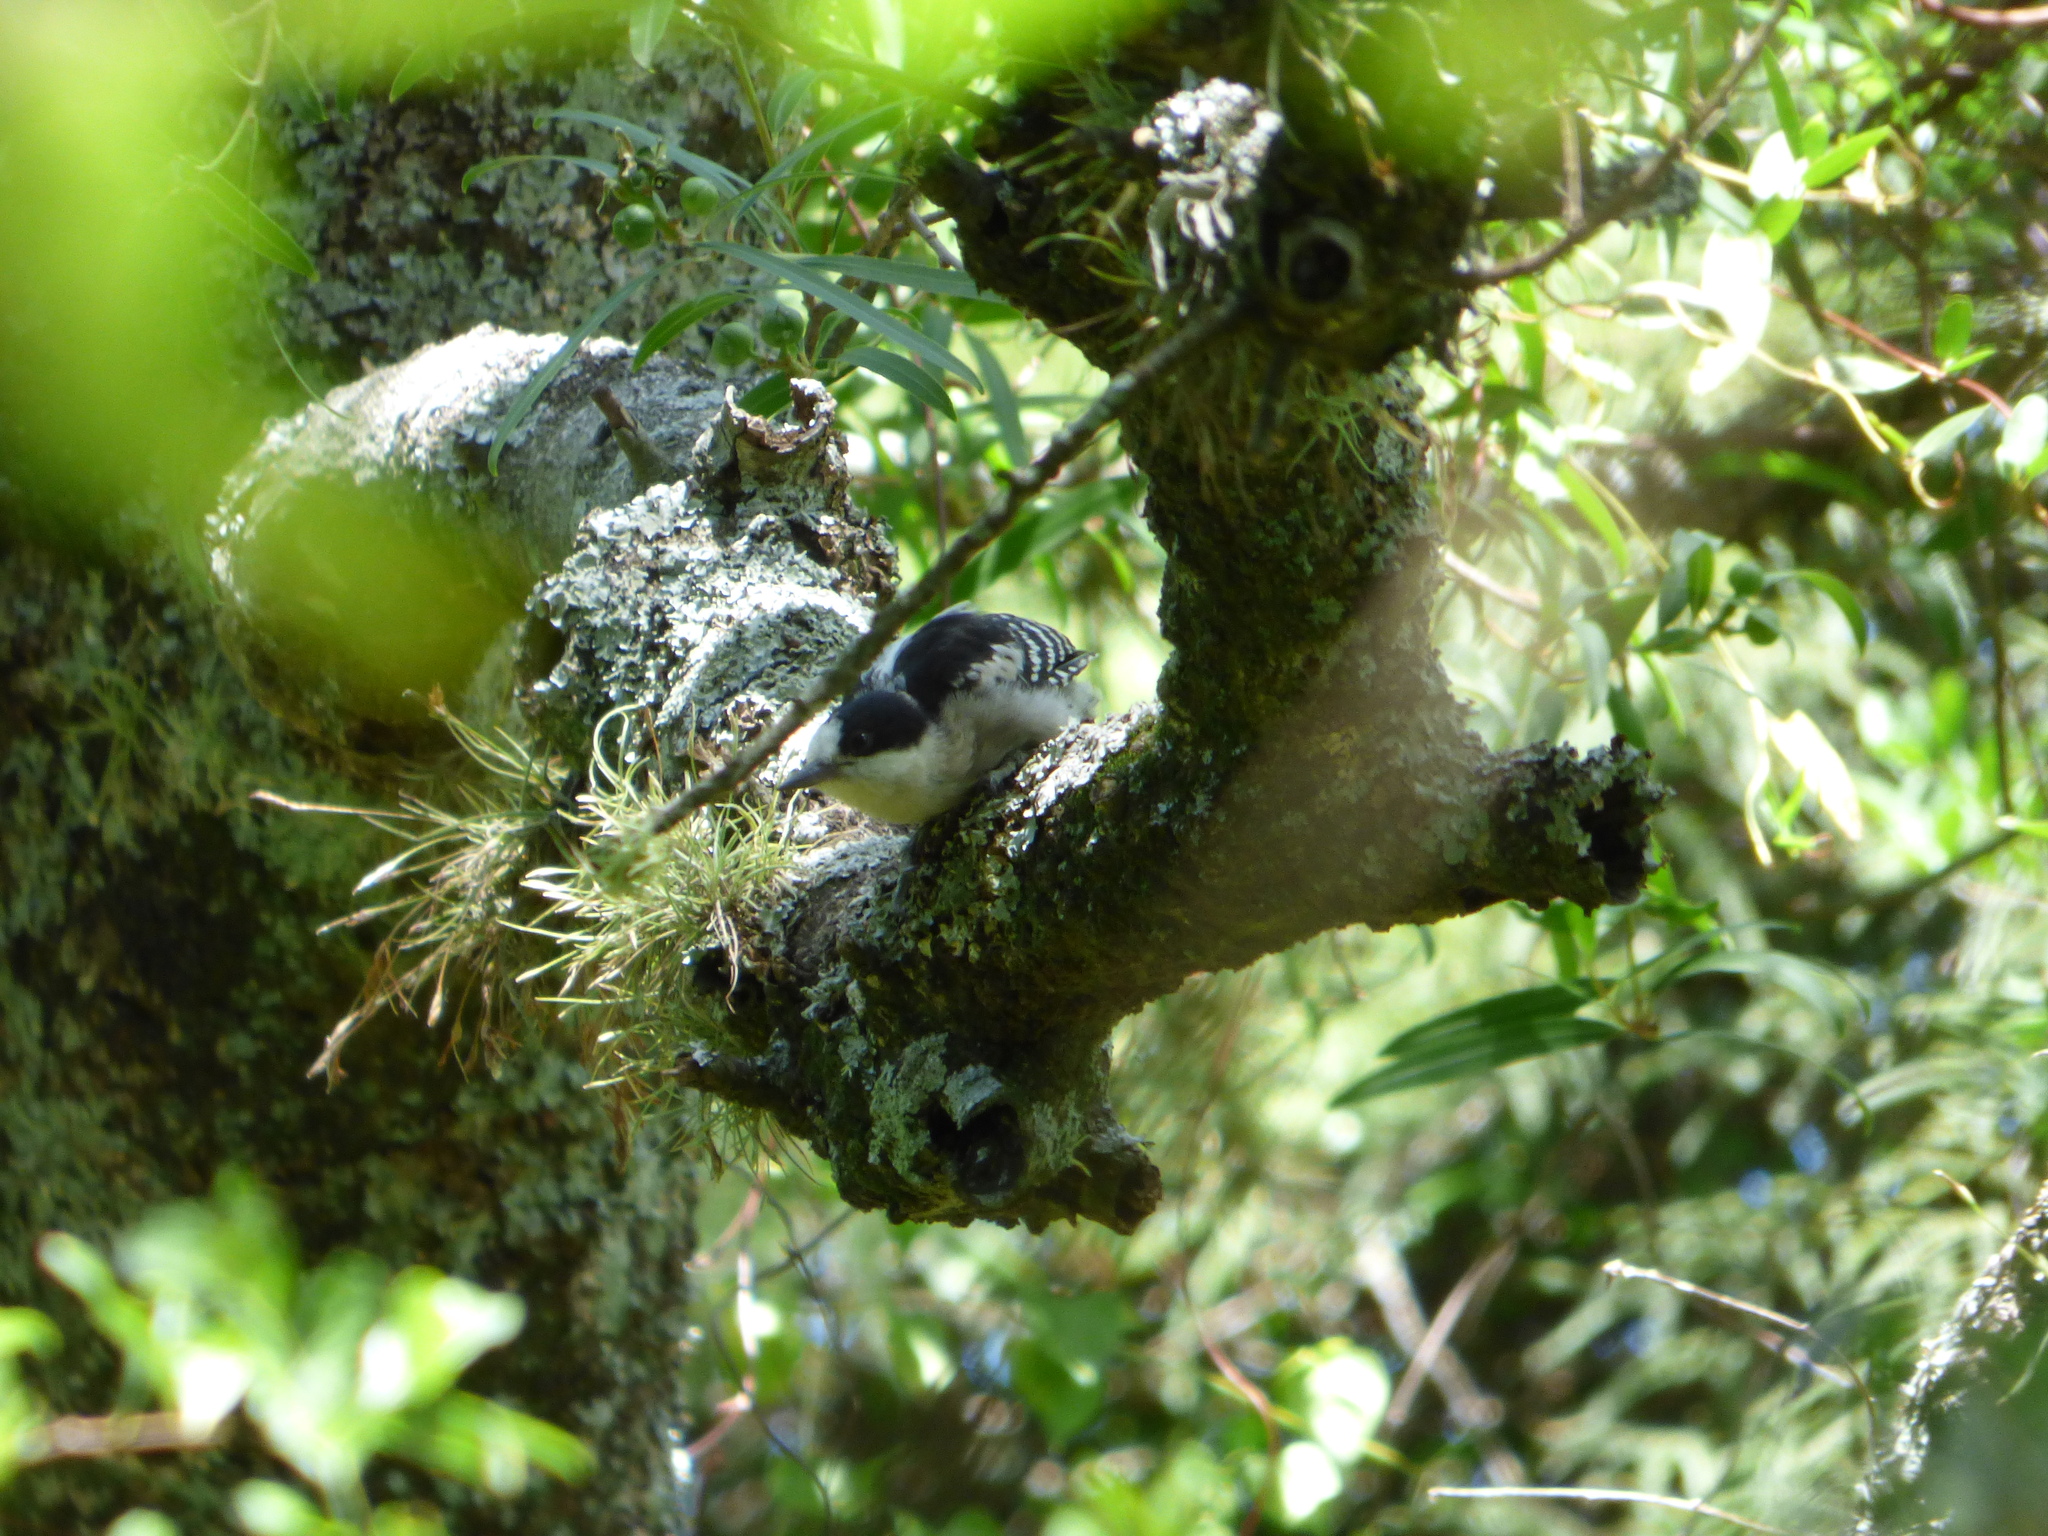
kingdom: Animalia
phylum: Chordata
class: Aves
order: Piciformes
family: Picidae
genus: Melanerpes
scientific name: Melanerpes cactorum
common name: White-fronted woodpecker
